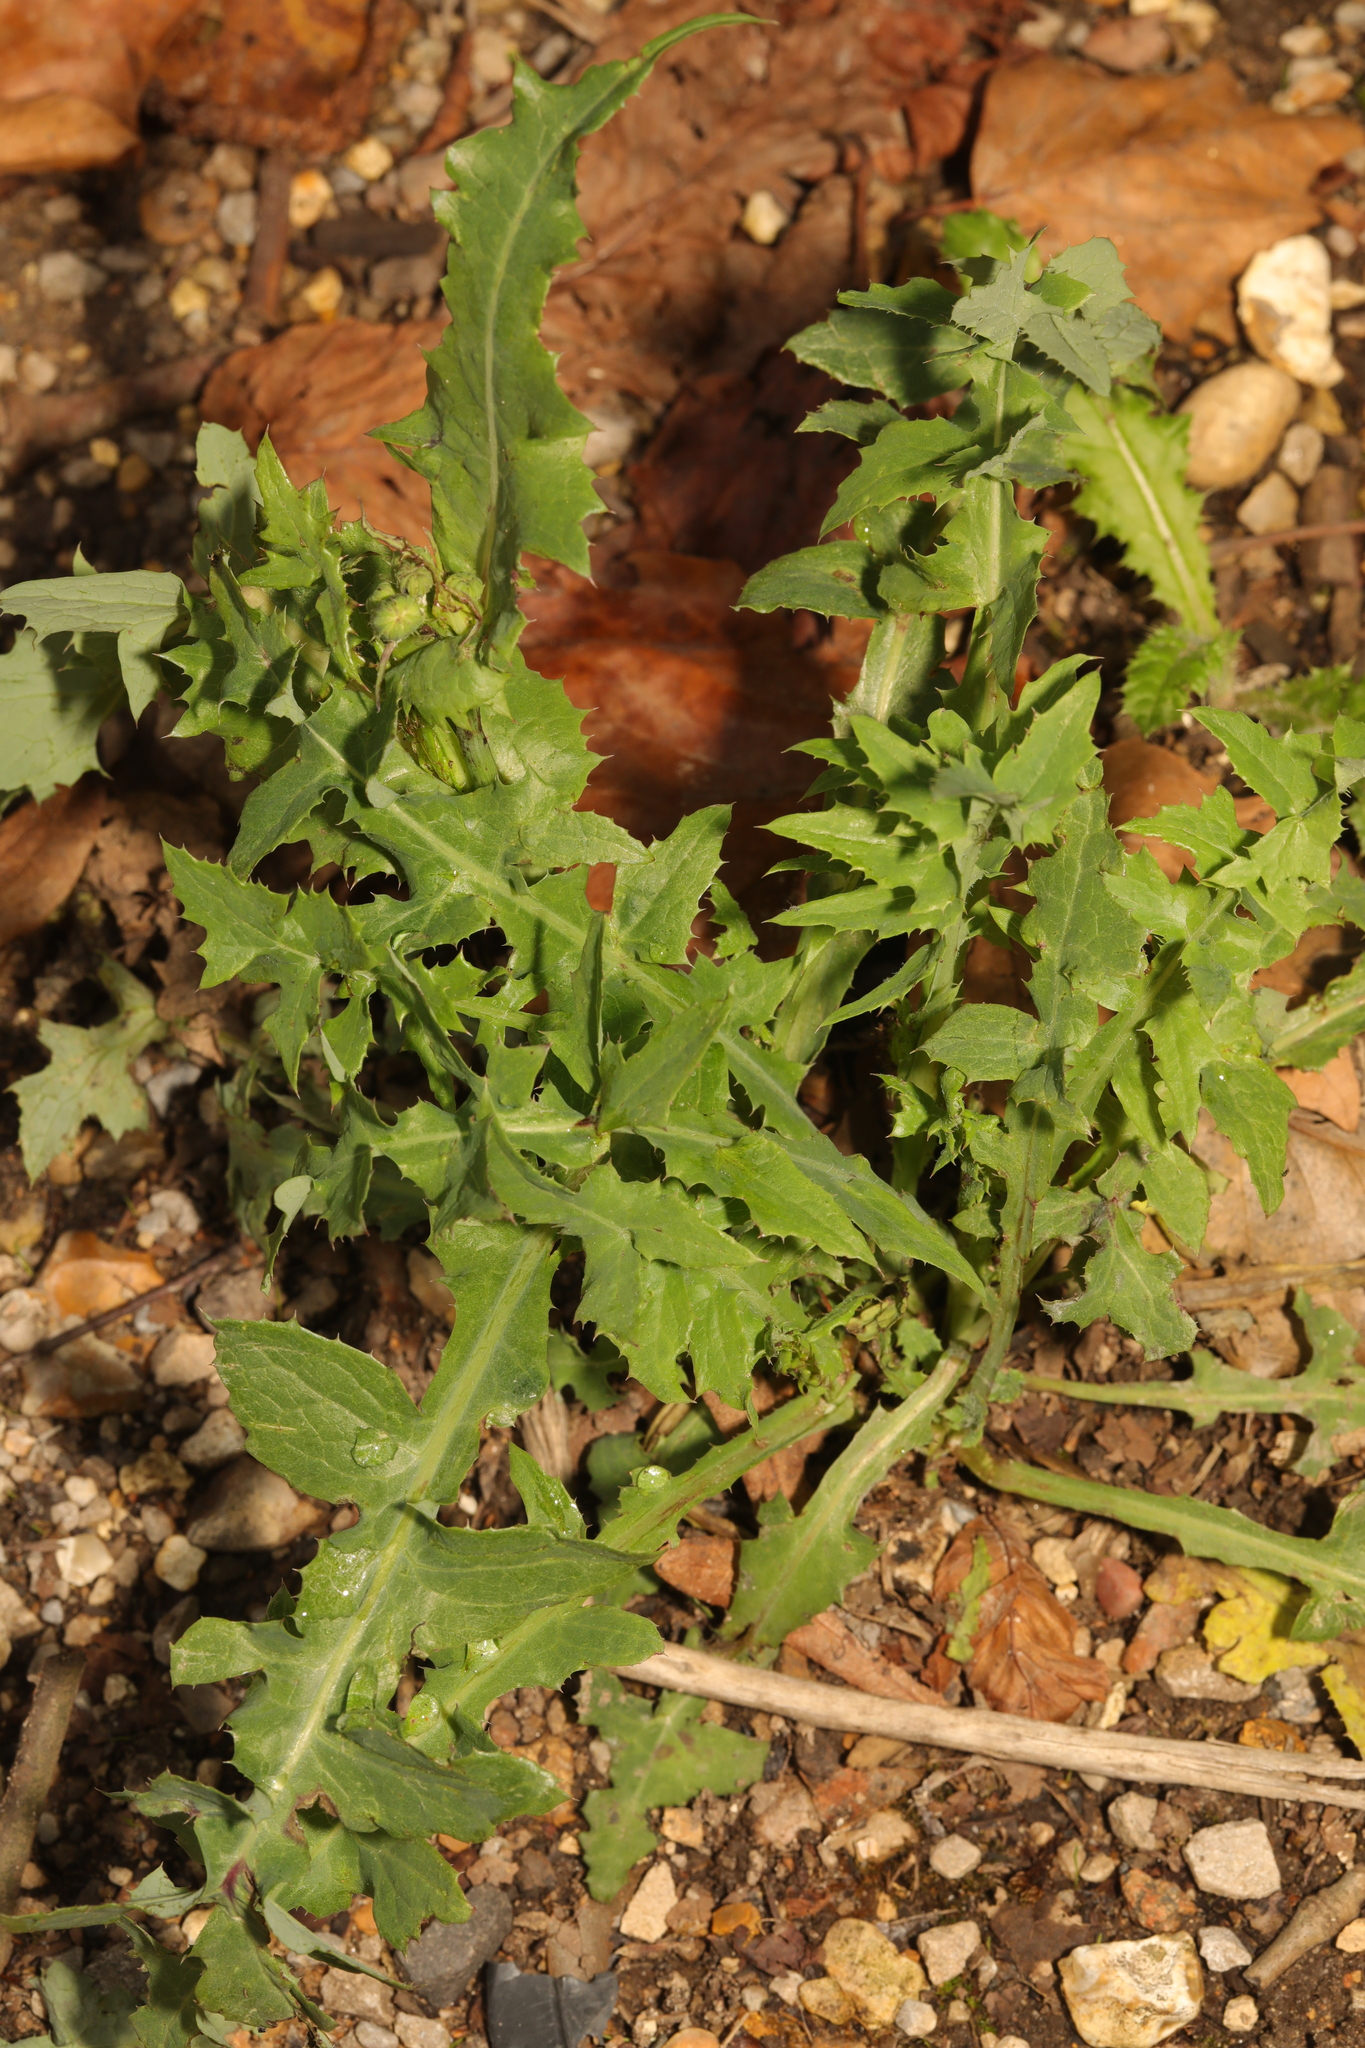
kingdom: Plantae
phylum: Tracheophyta
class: Magnoliopsida
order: Asterales
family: Asteraceae
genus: Sonchus
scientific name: Sonchus oleraceus
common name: Common sowthistle
